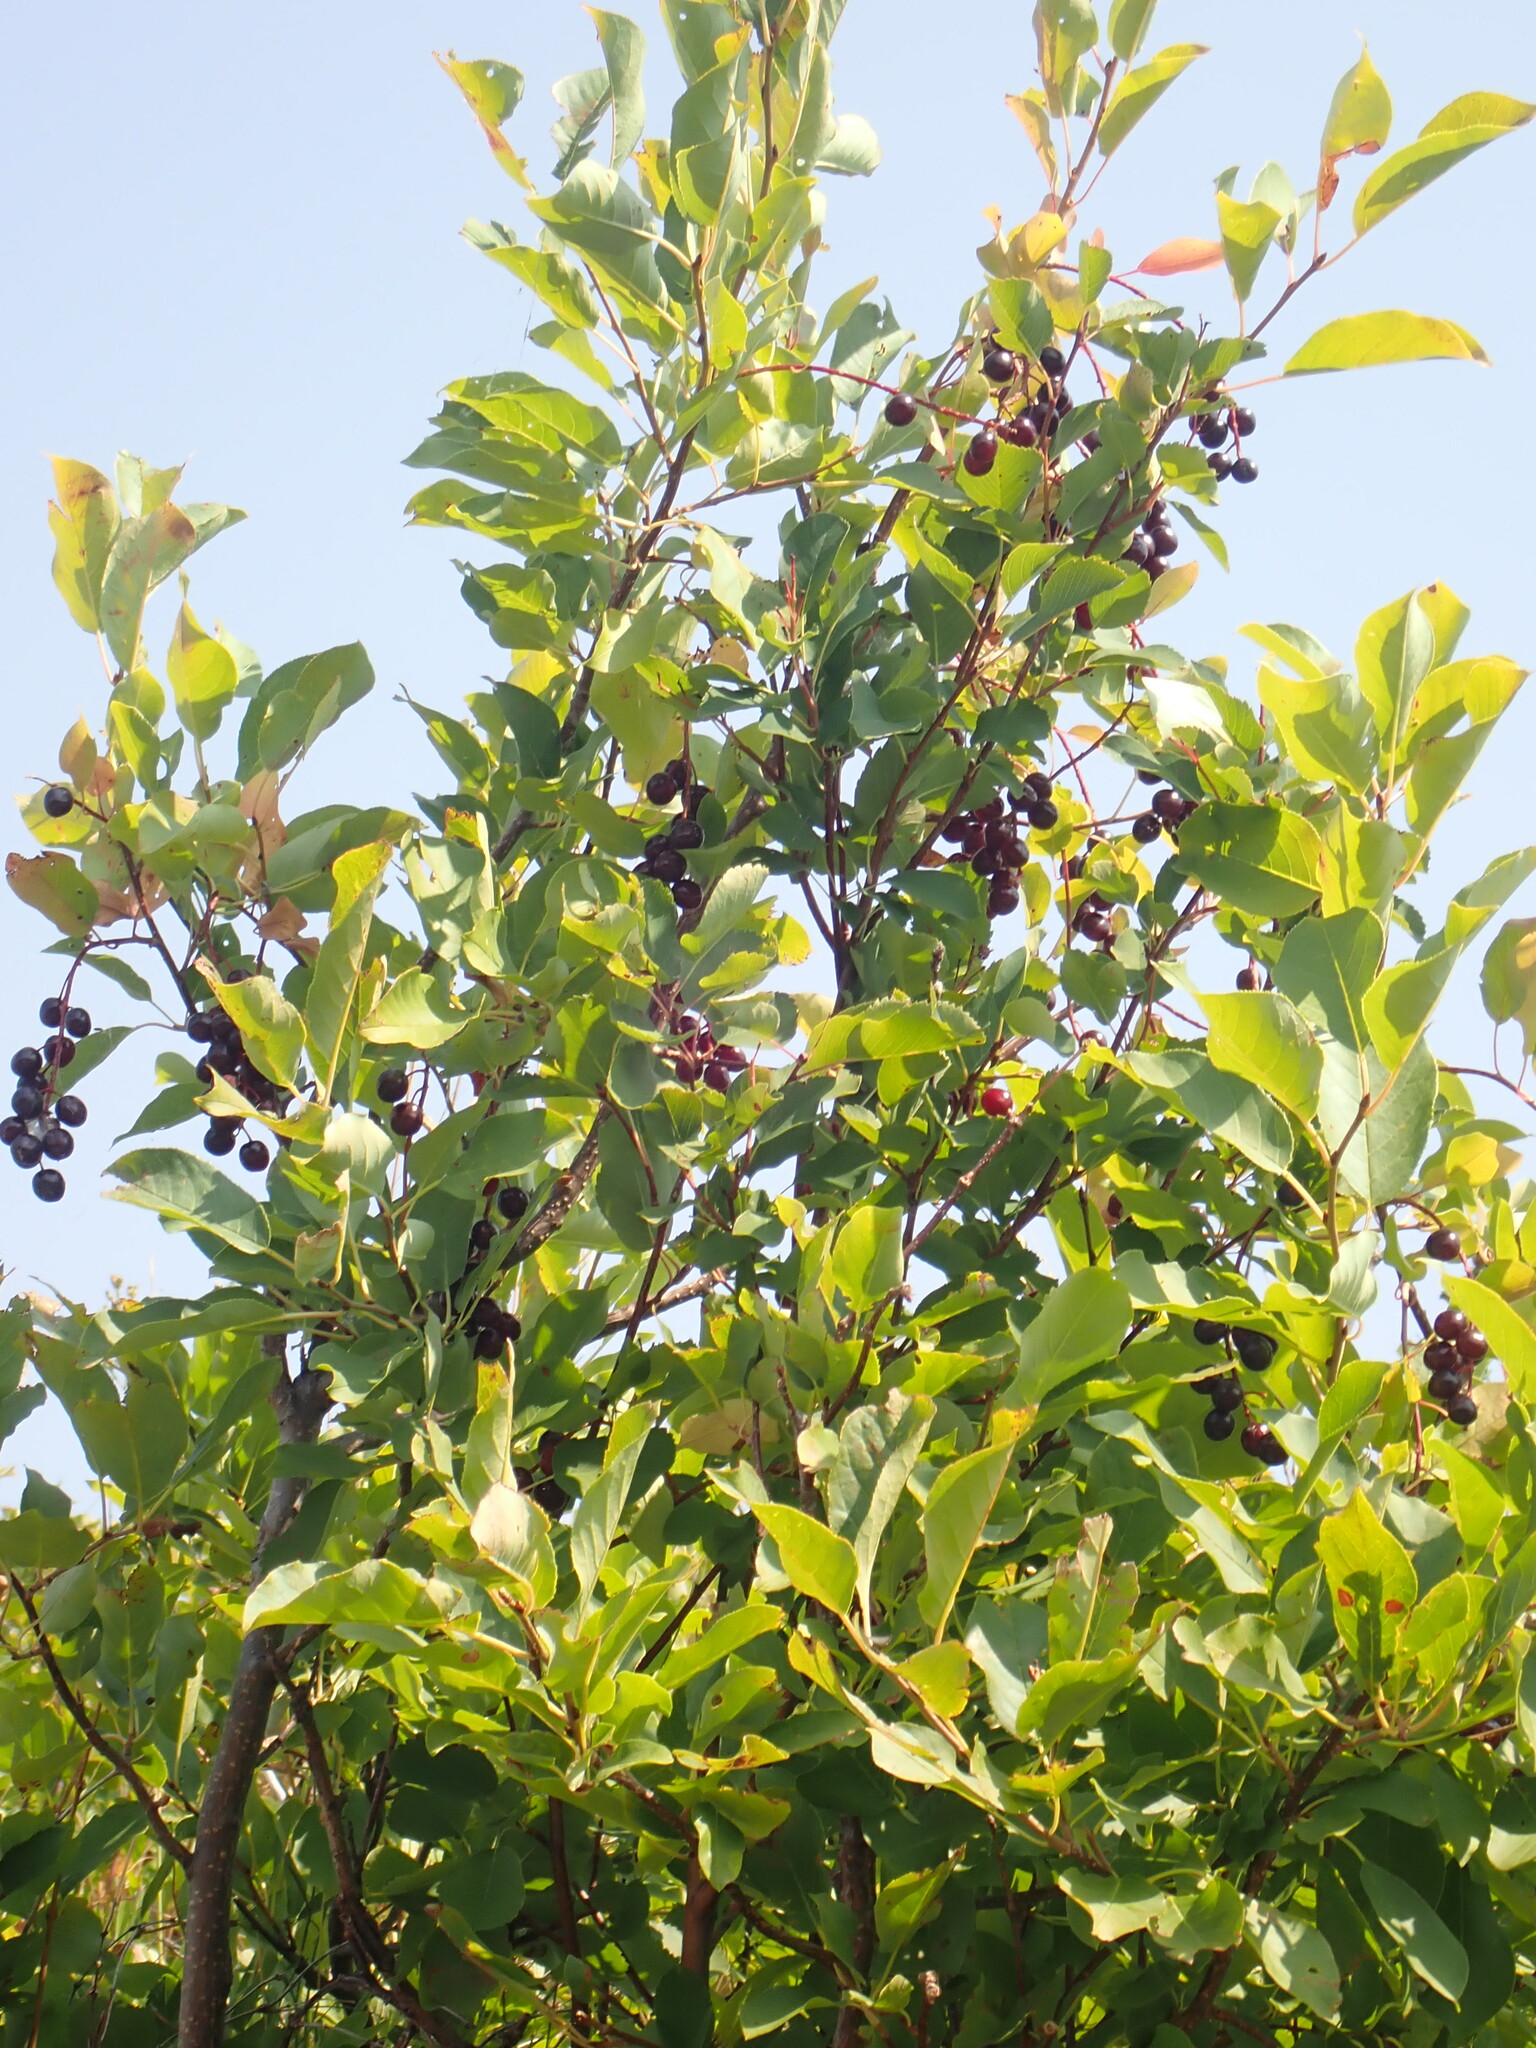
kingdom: Plantae
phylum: Tracheophyta
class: Magnoliopsida
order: Rosales
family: Rosaceae
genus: Prunus
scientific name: Prunus virginiana
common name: Chokecherry
